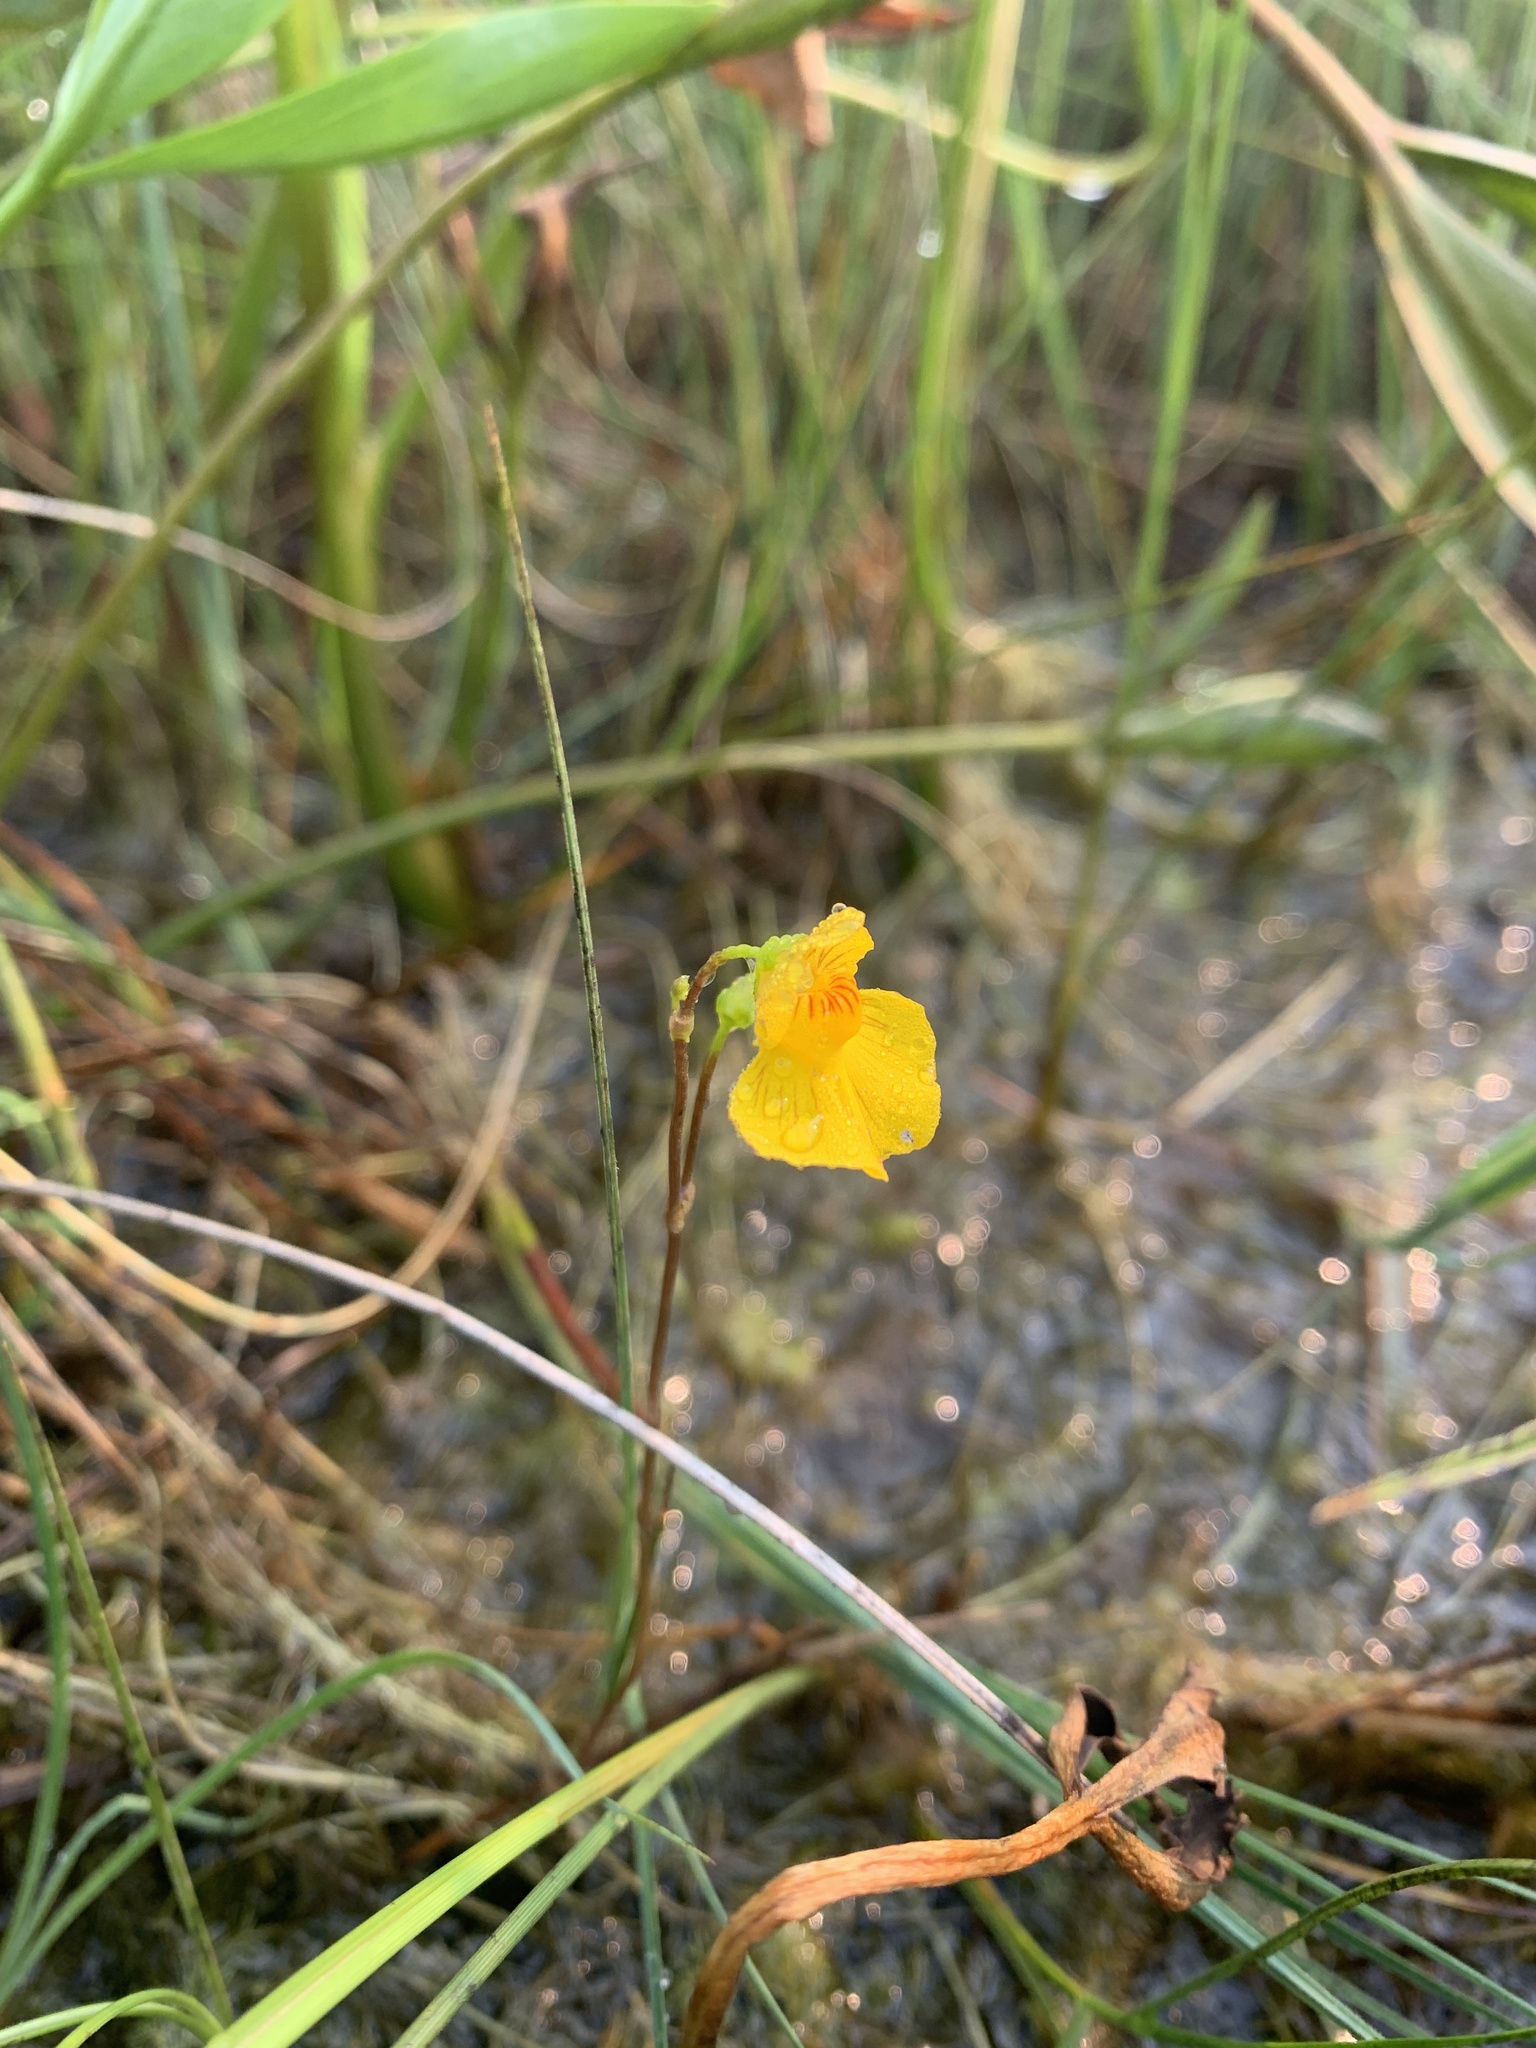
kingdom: Plantae
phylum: Tracheophyta
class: Magnoliopsida
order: Lamiales
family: Lentibulariaceae
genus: Utricularia
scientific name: Utricularia intermedia
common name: Intermediate bladderwort
